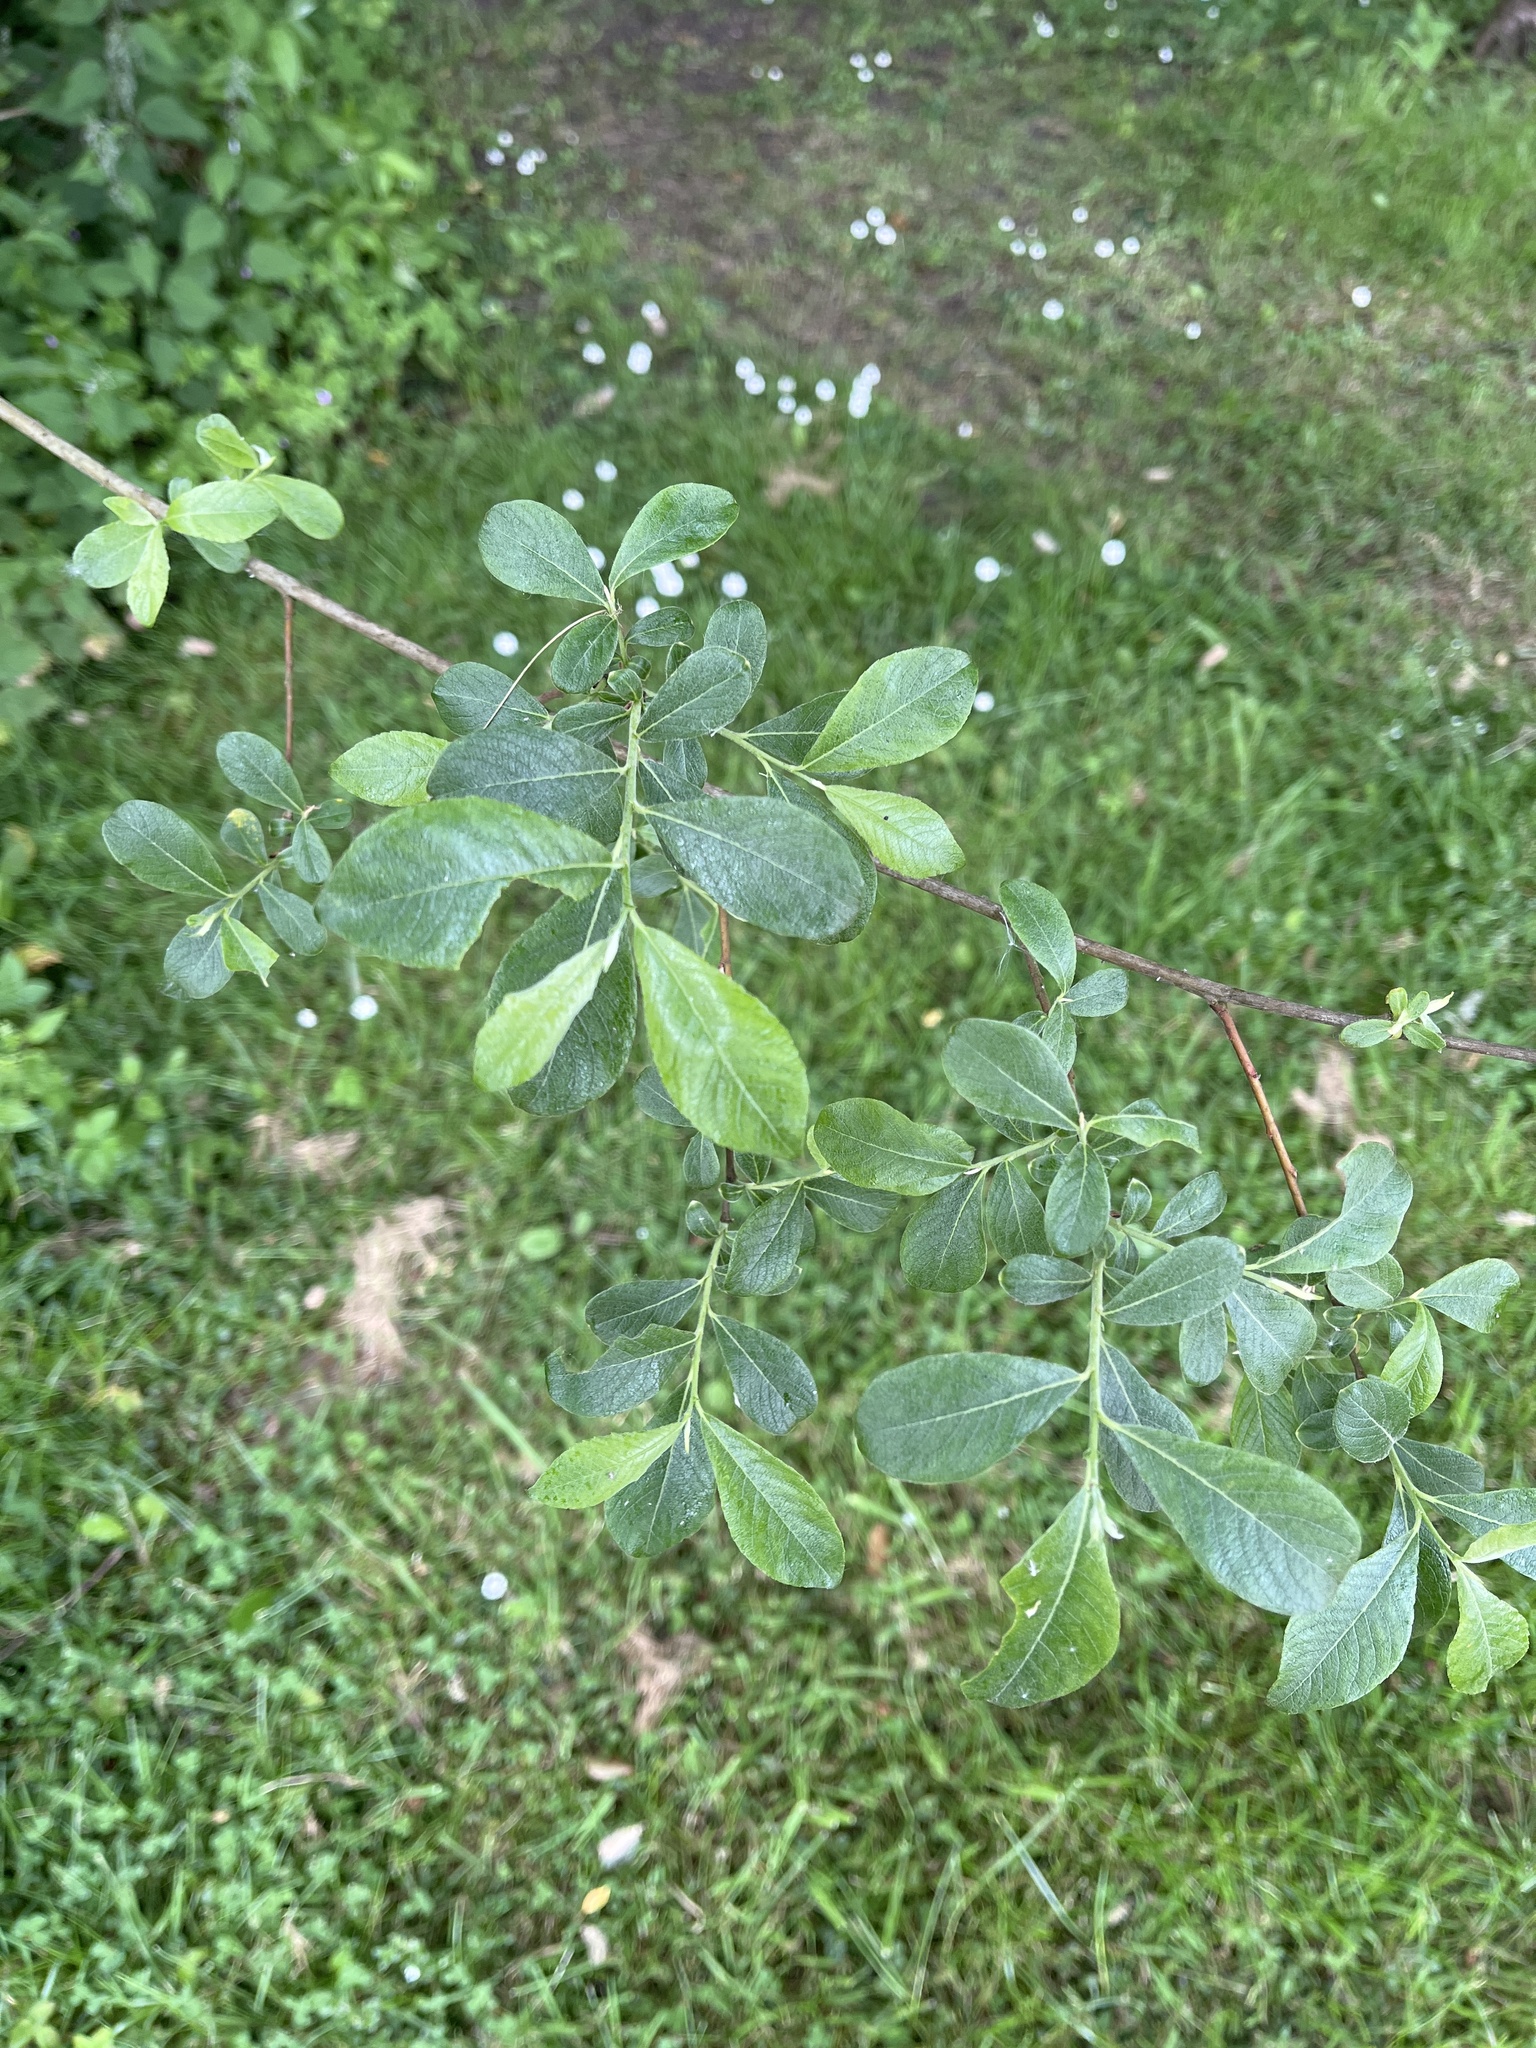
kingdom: Plantae
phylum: Tracheophyta
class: Magnoliopsida
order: Malpighiales
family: Salicaceae
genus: Salix
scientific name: Salix atrocinerea
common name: Rusty willow
